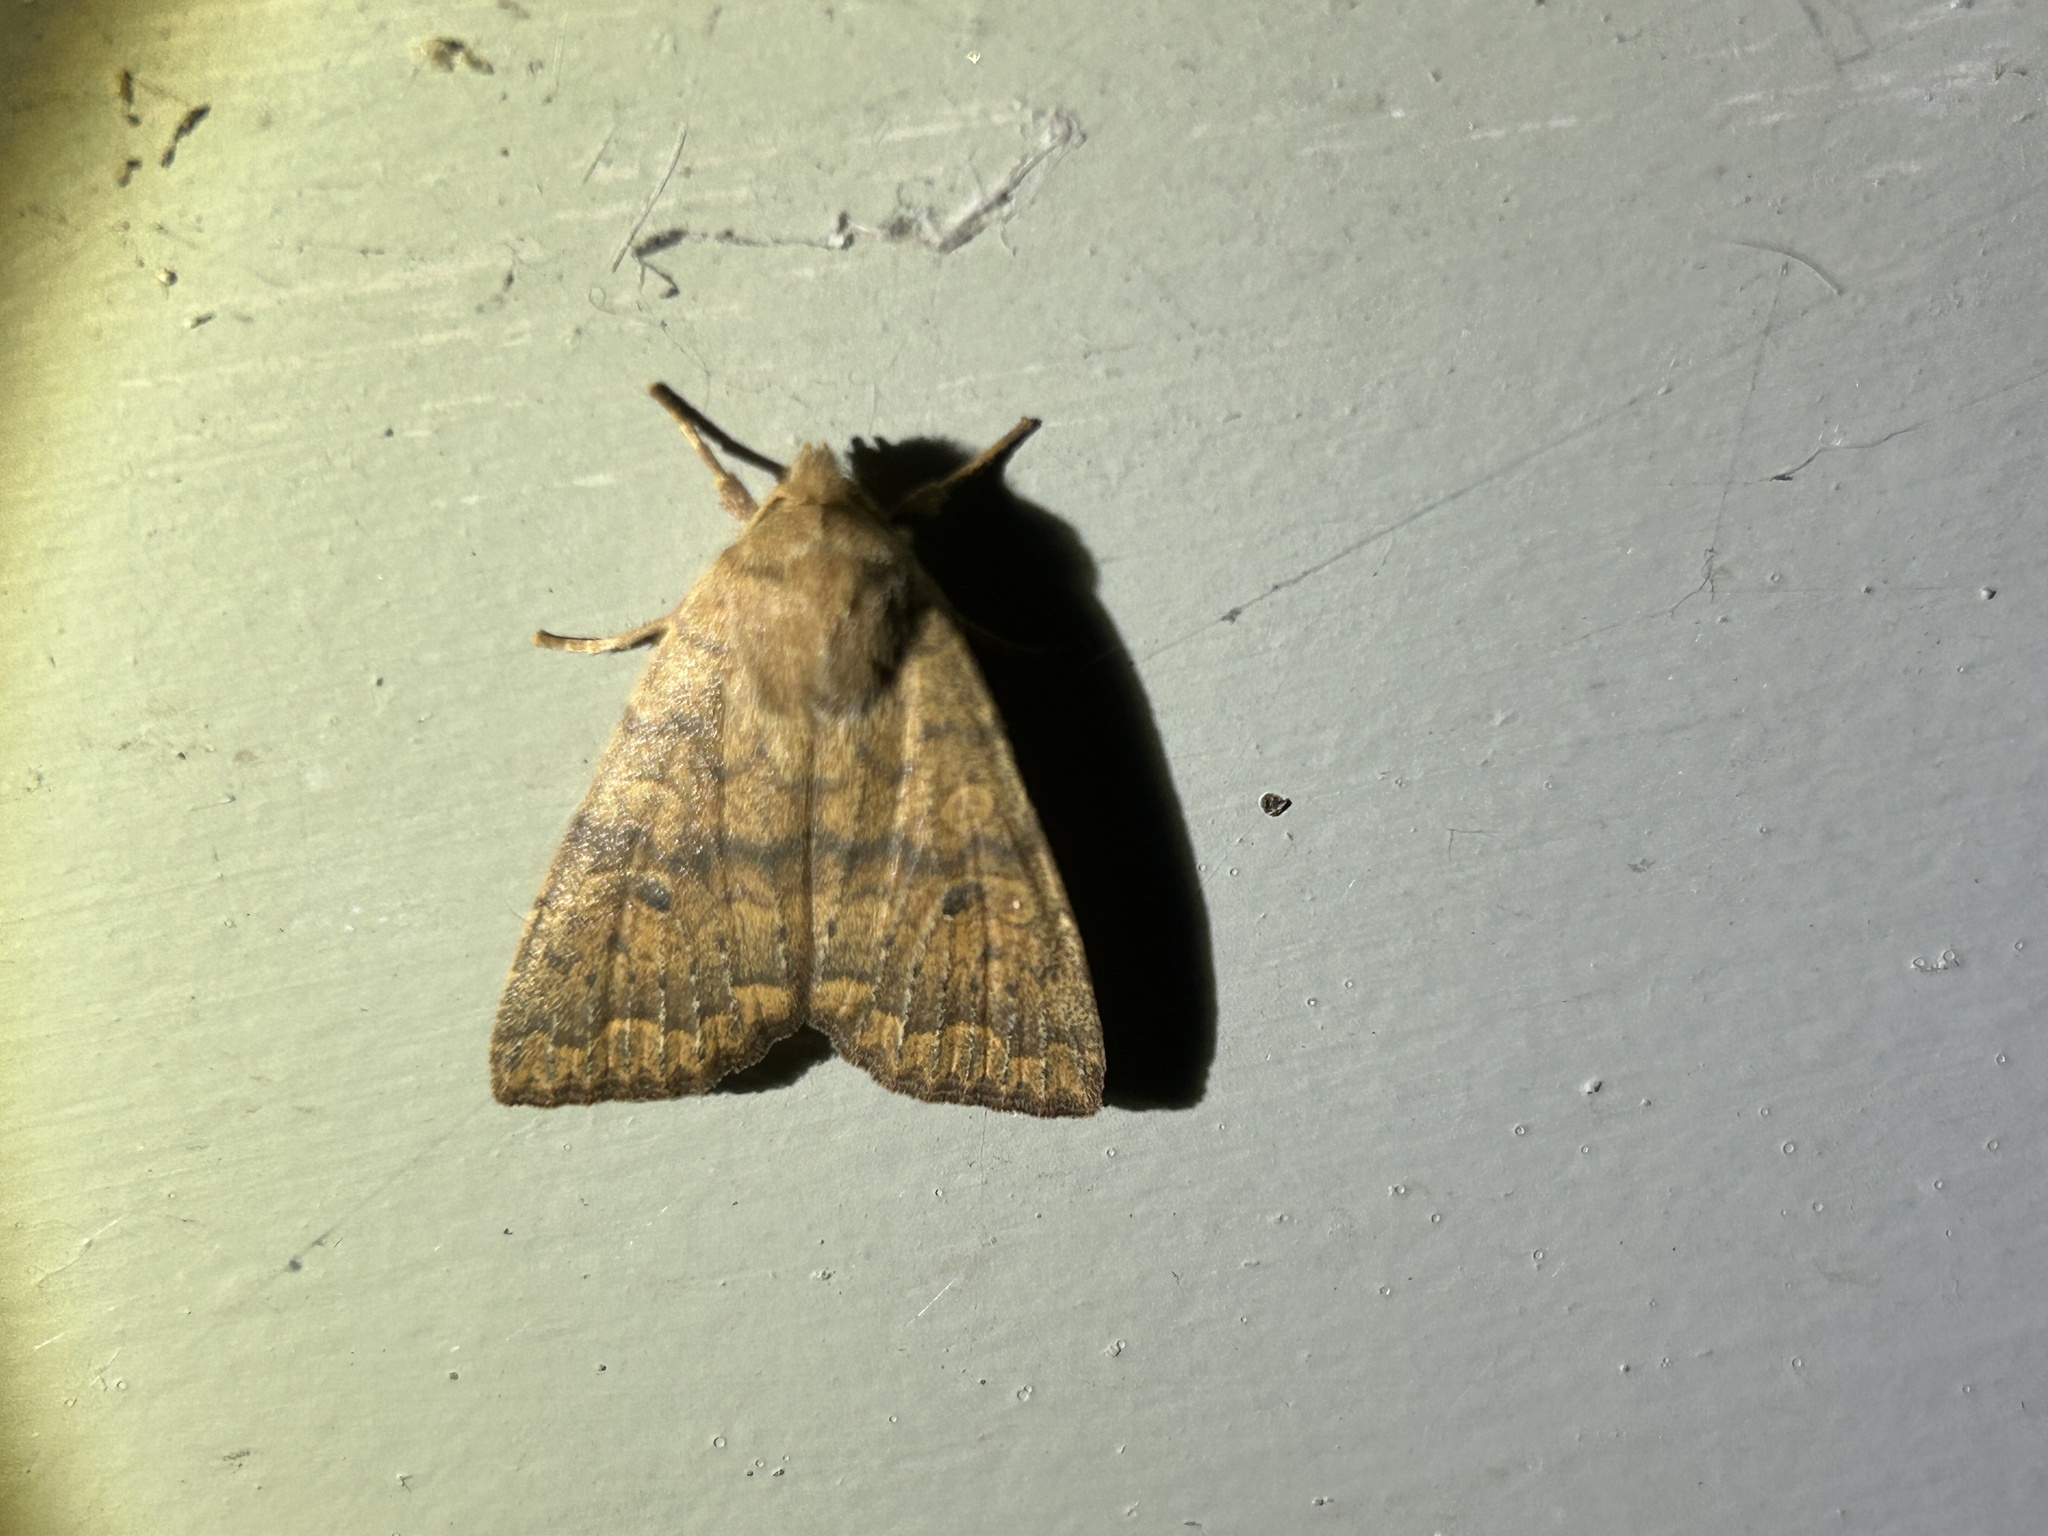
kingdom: Animalia
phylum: Arthropoda
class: Insecta
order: Lepidoptera
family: Noctuidae
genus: Agrochola
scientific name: Agrochola bicolorago
